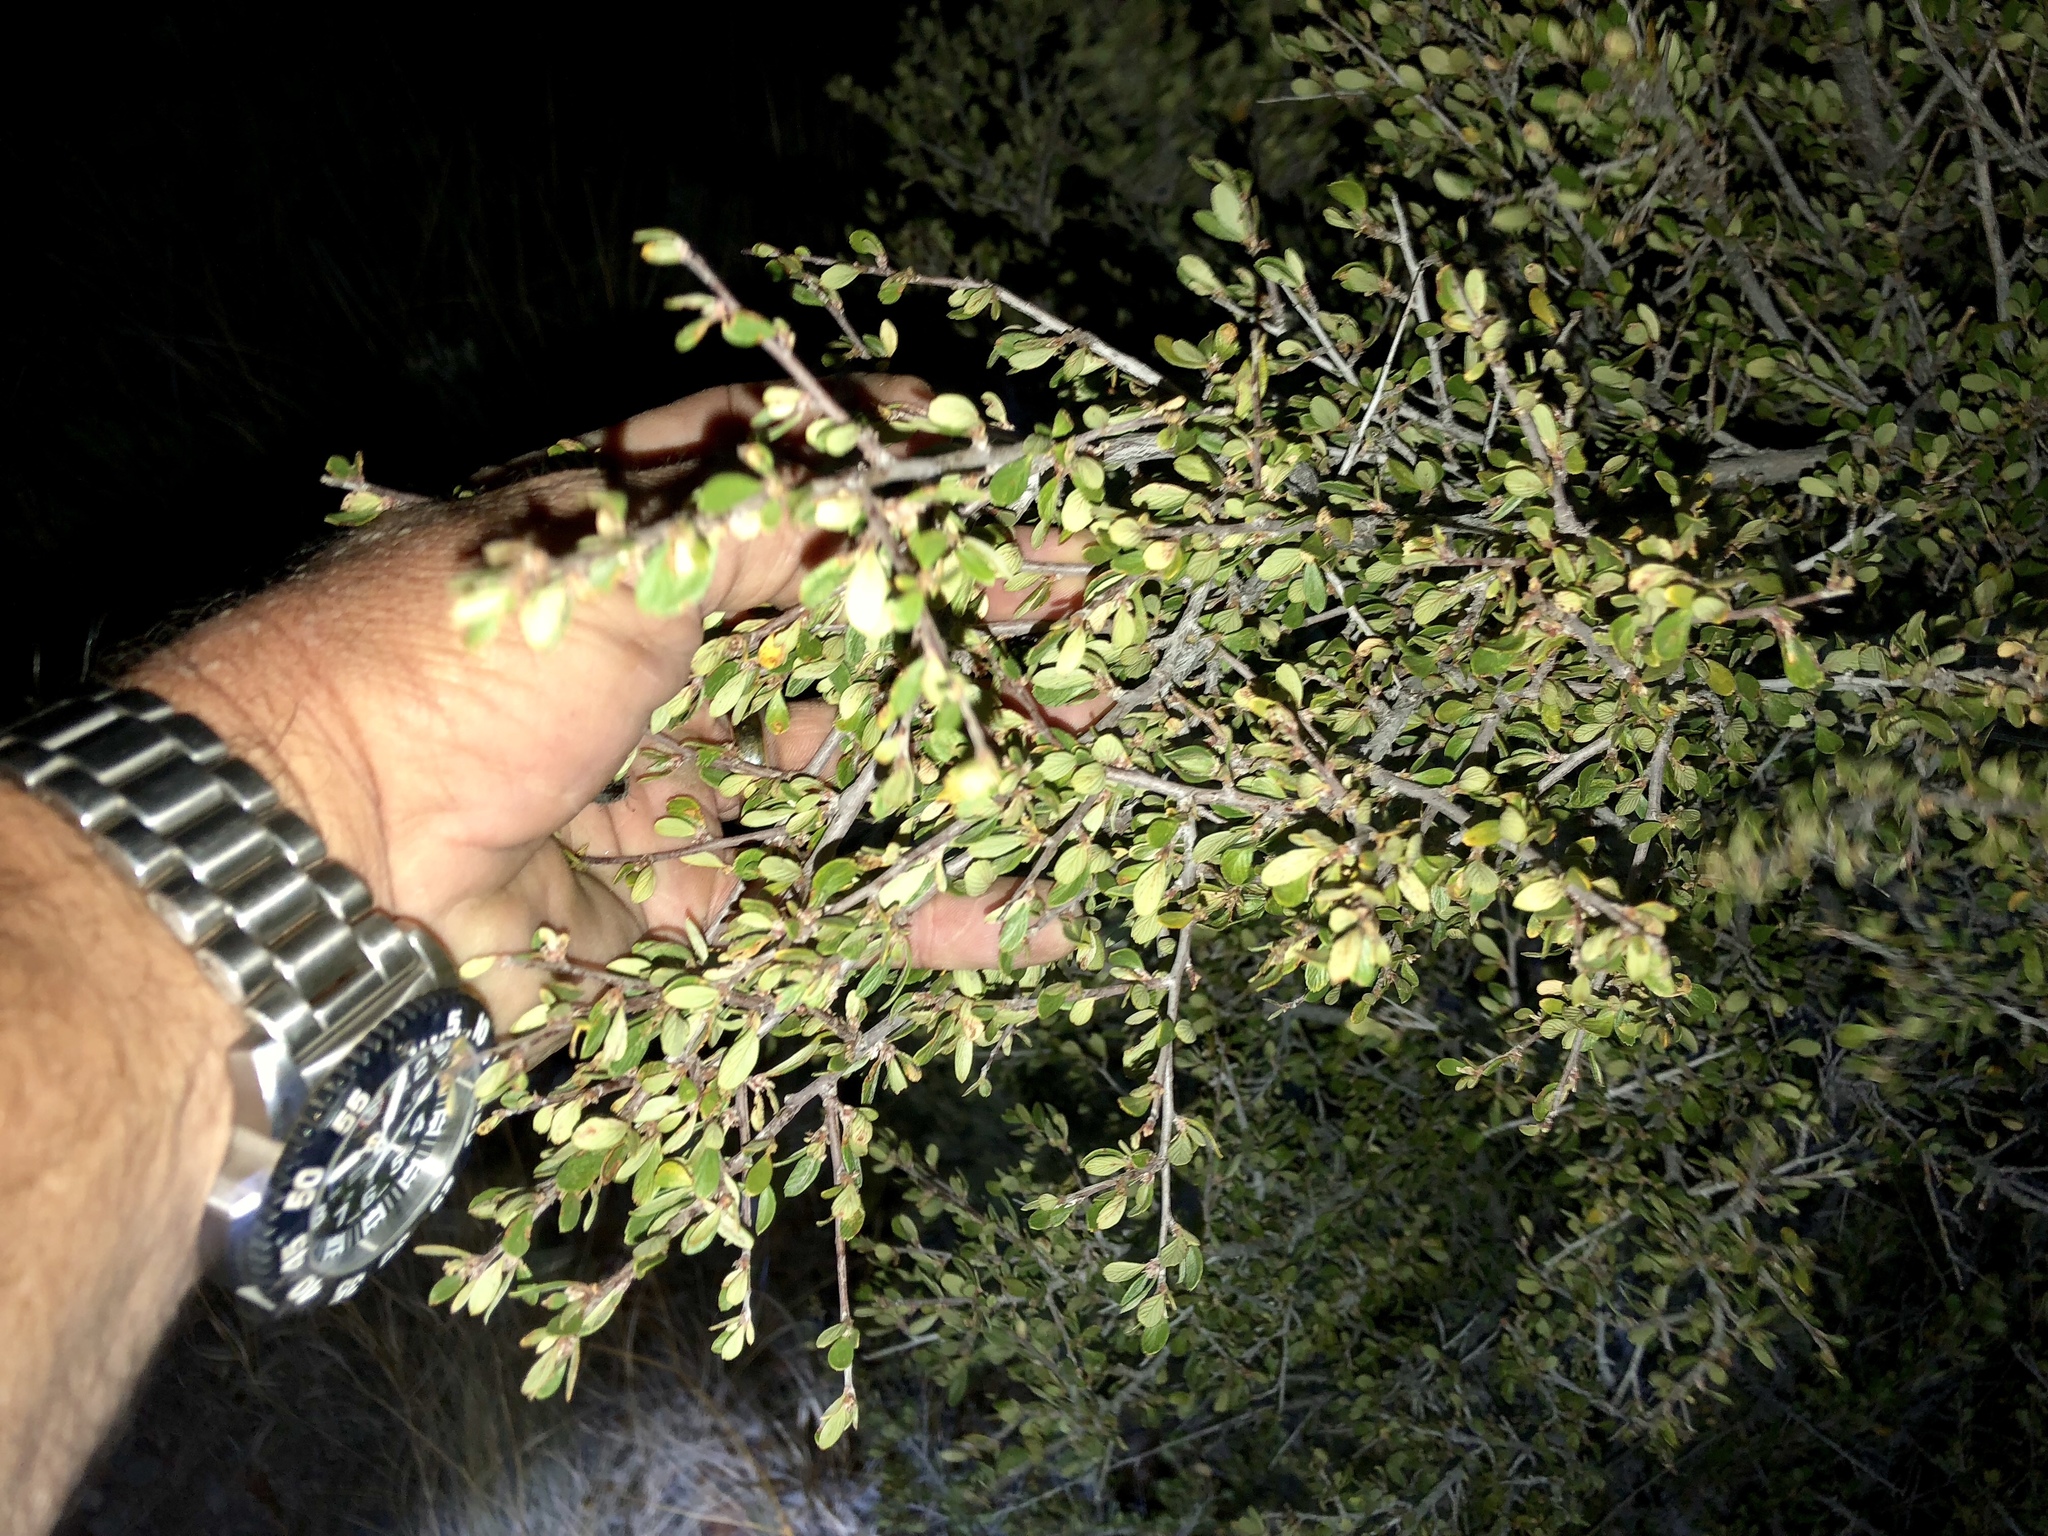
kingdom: Plantae
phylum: Tracheophyta
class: Magnoliopsida
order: Rosales
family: Rosaceae
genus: Cercocarpus
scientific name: Cercocarpus breviflorus
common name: Wright's mountain-mahogany
